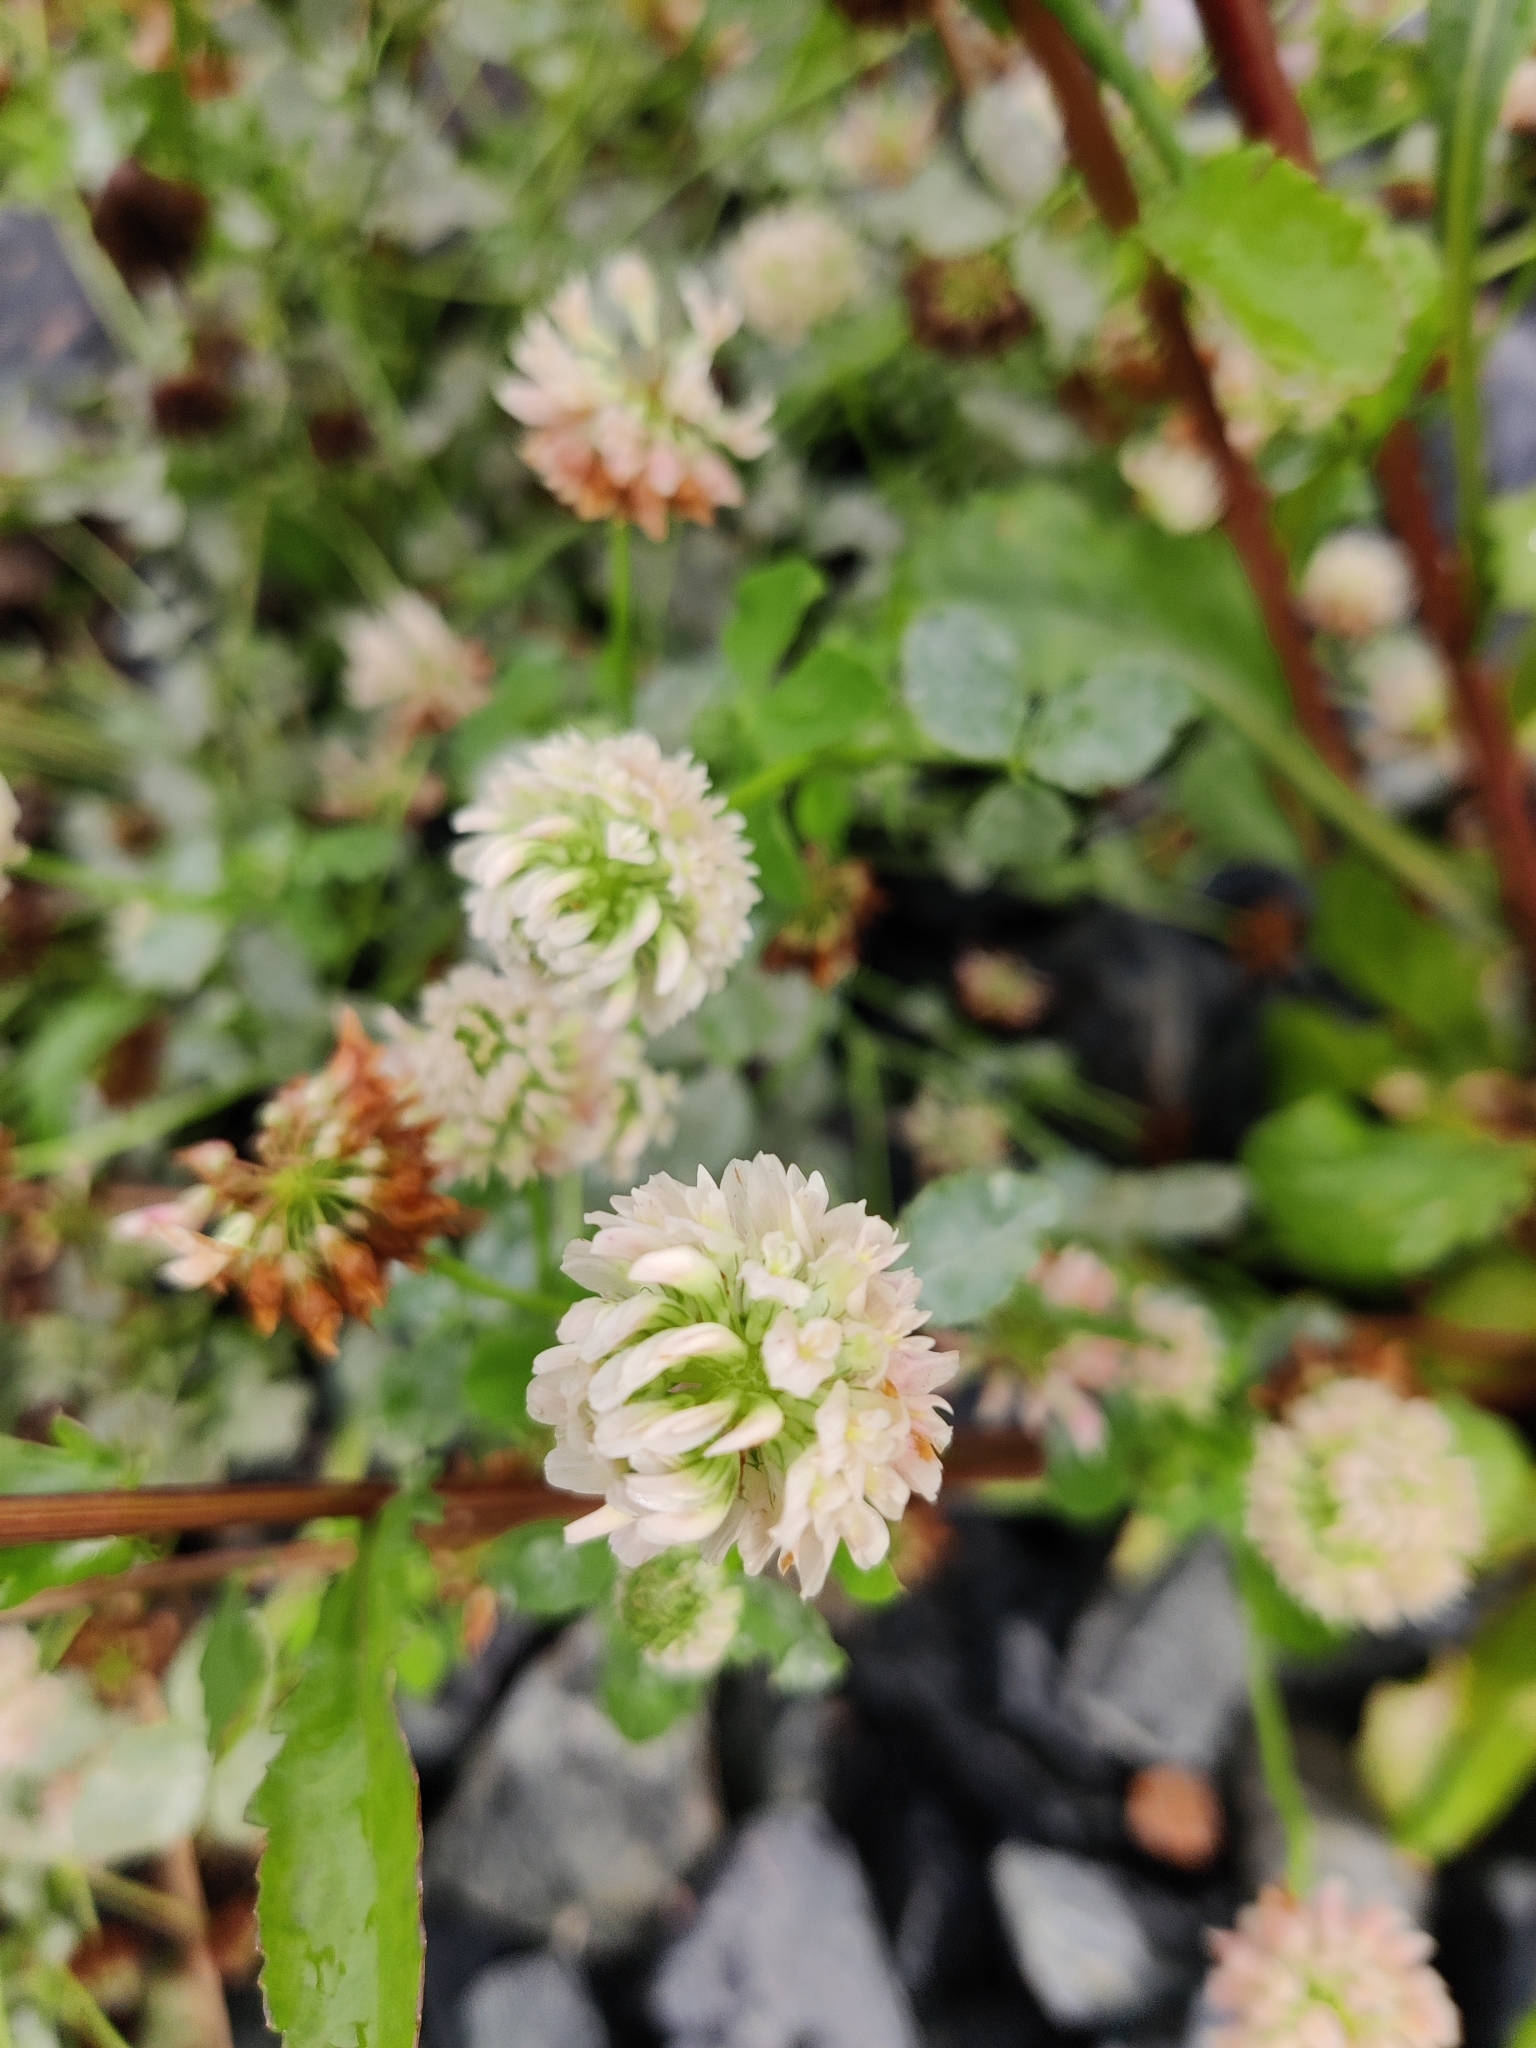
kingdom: Plantae
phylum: Tracheophyta
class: Magnoliopsida
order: Fabales
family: Fabaceae
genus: Trifolium
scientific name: Trifolium hybridum
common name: Alsike clover
